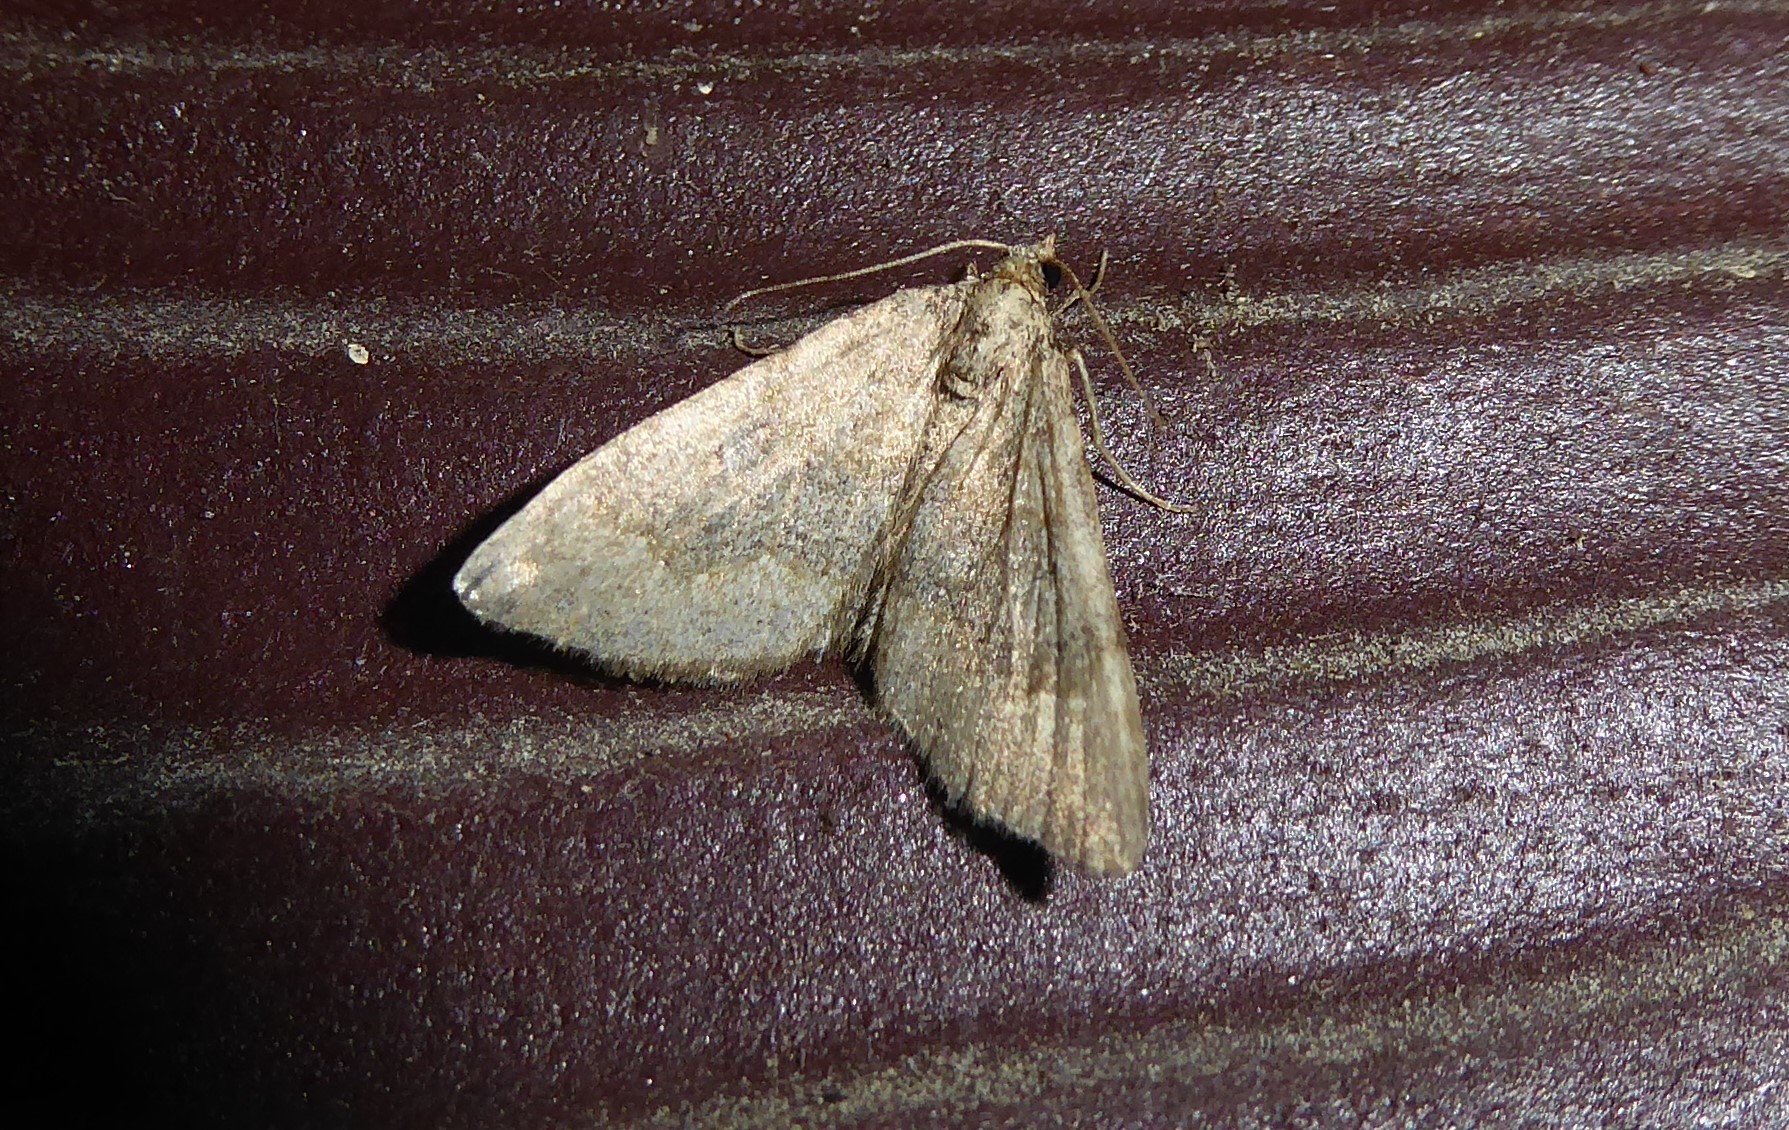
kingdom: Animalia
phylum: Arthropoda
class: Insecta
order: Lepidoptera
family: Geometridae
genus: Epyaxa
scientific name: Epyaxa rosearia
